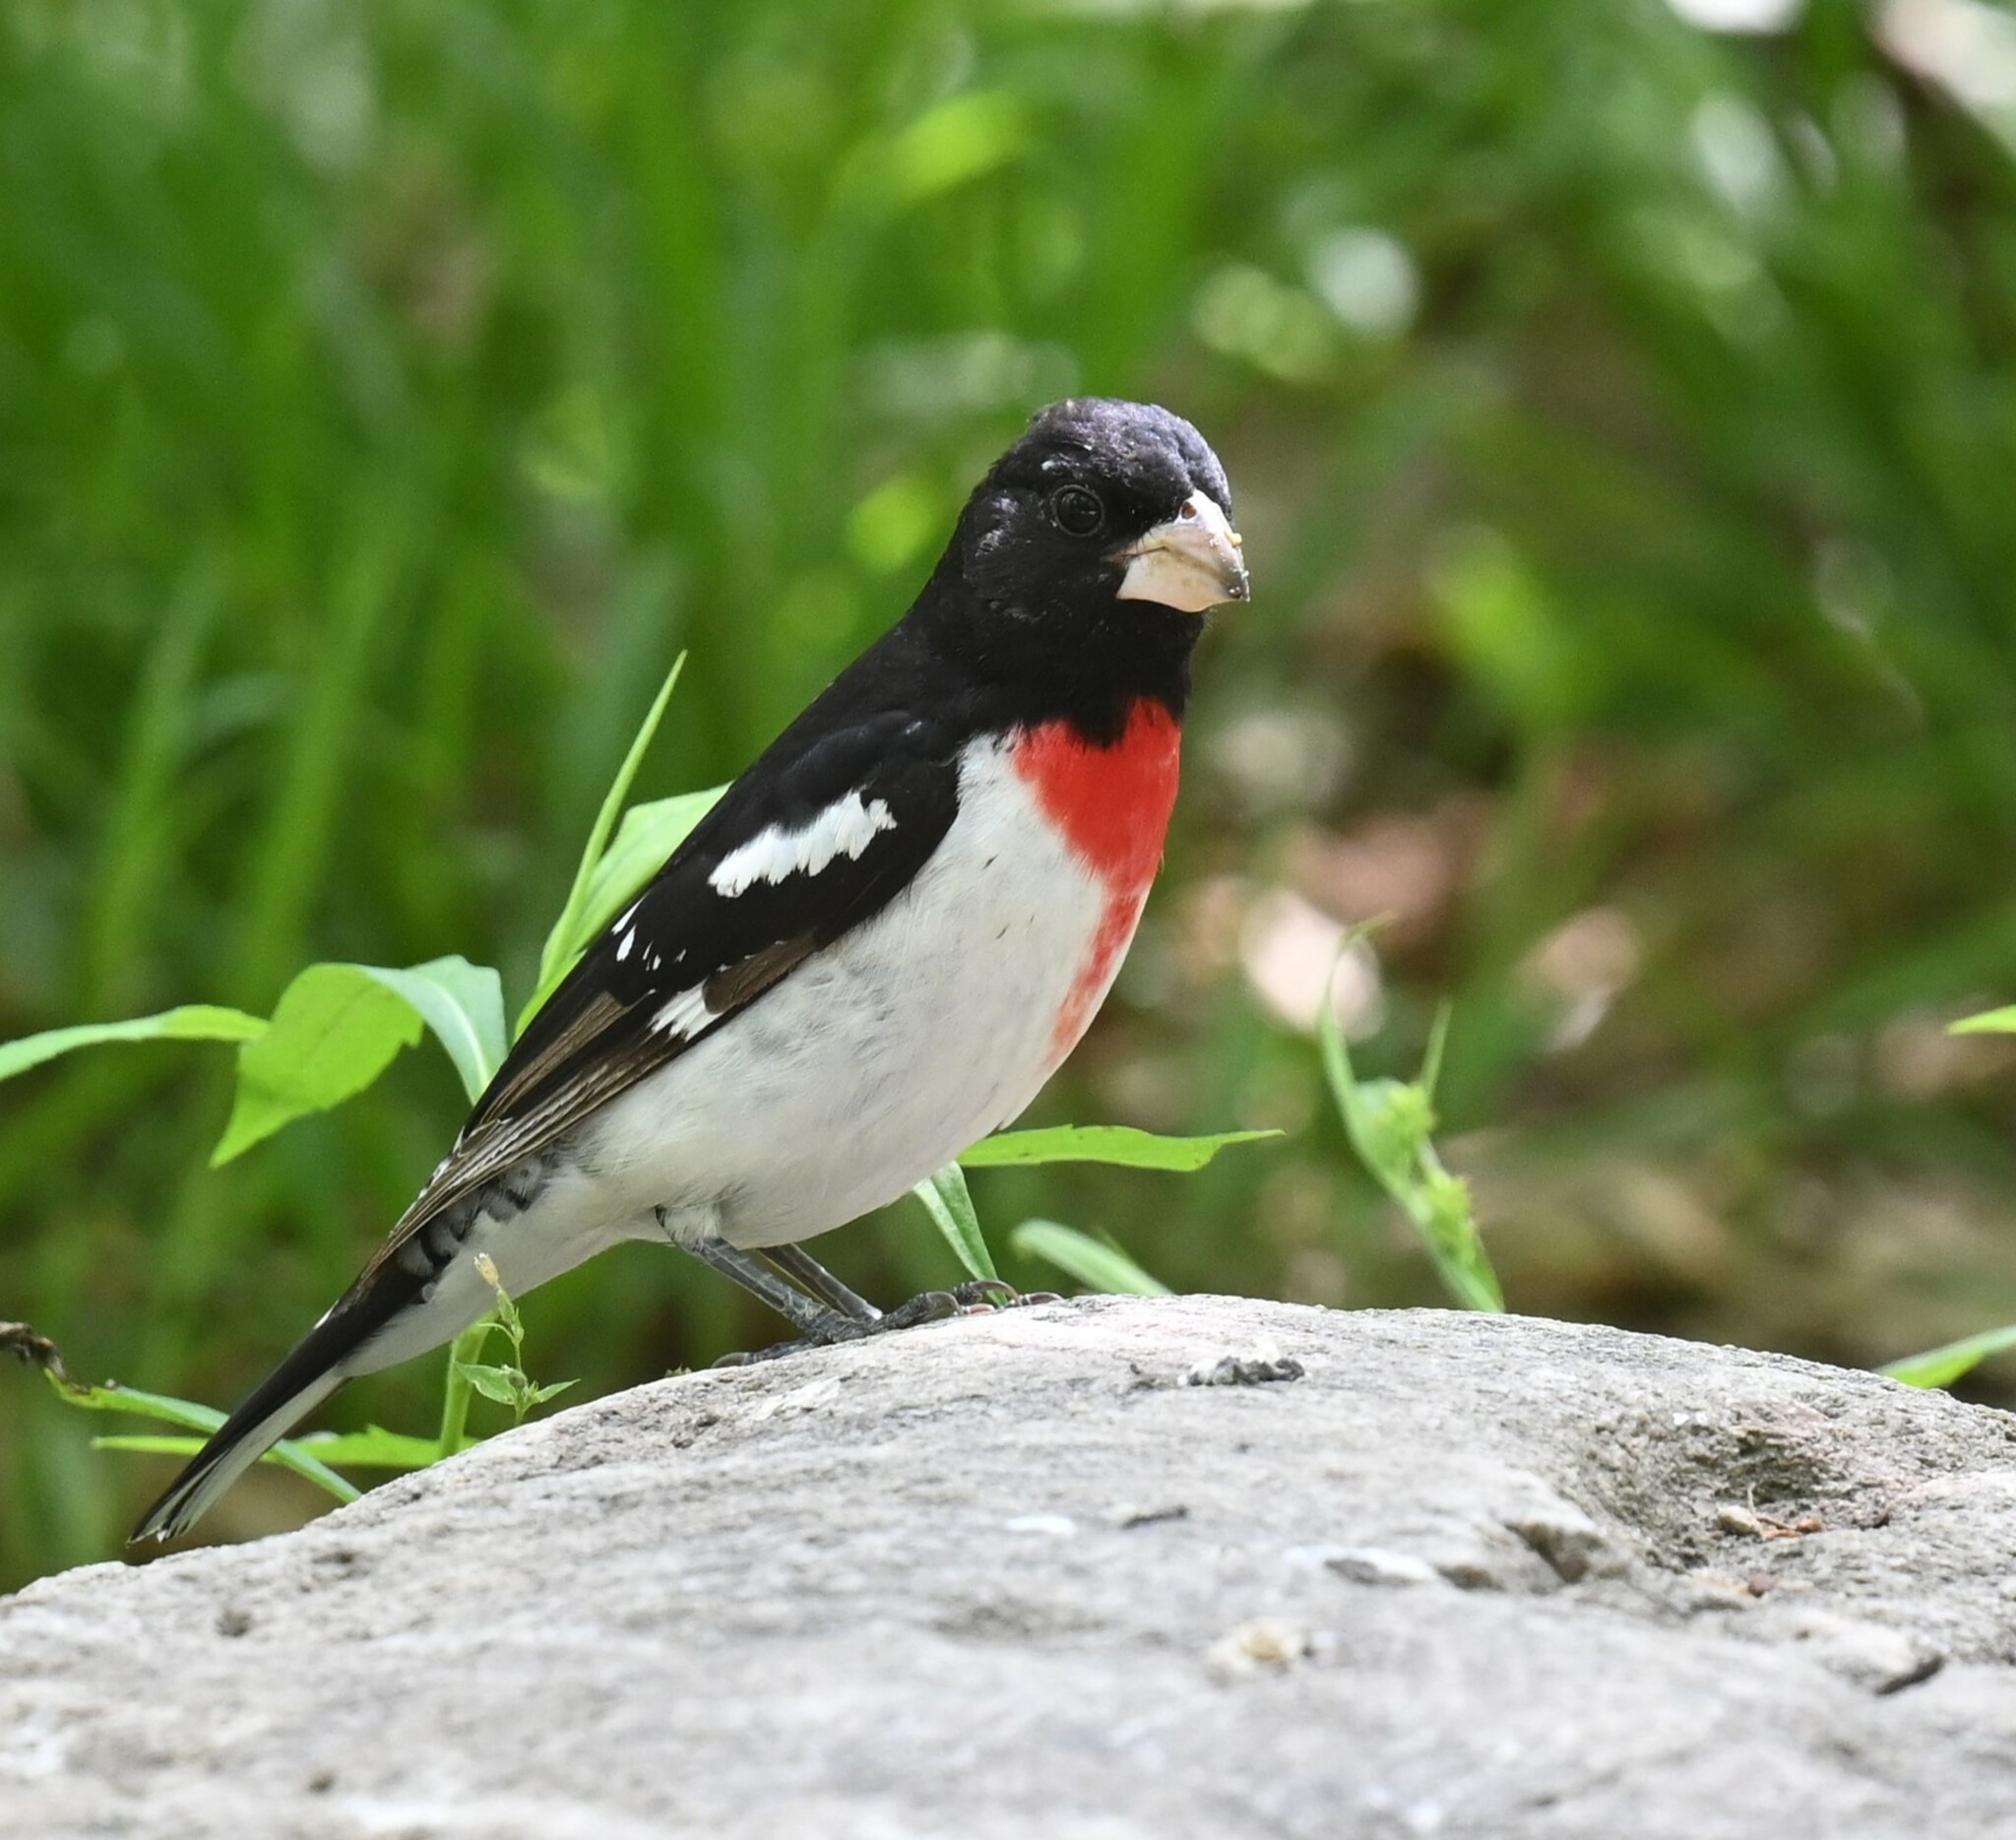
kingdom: Animalia
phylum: Chordata
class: Aves
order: Passeriformes
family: Cardinalidae
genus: Pheucticus
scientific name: Pheucticus ludovicianus
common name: Rose-breasted grosbeak
